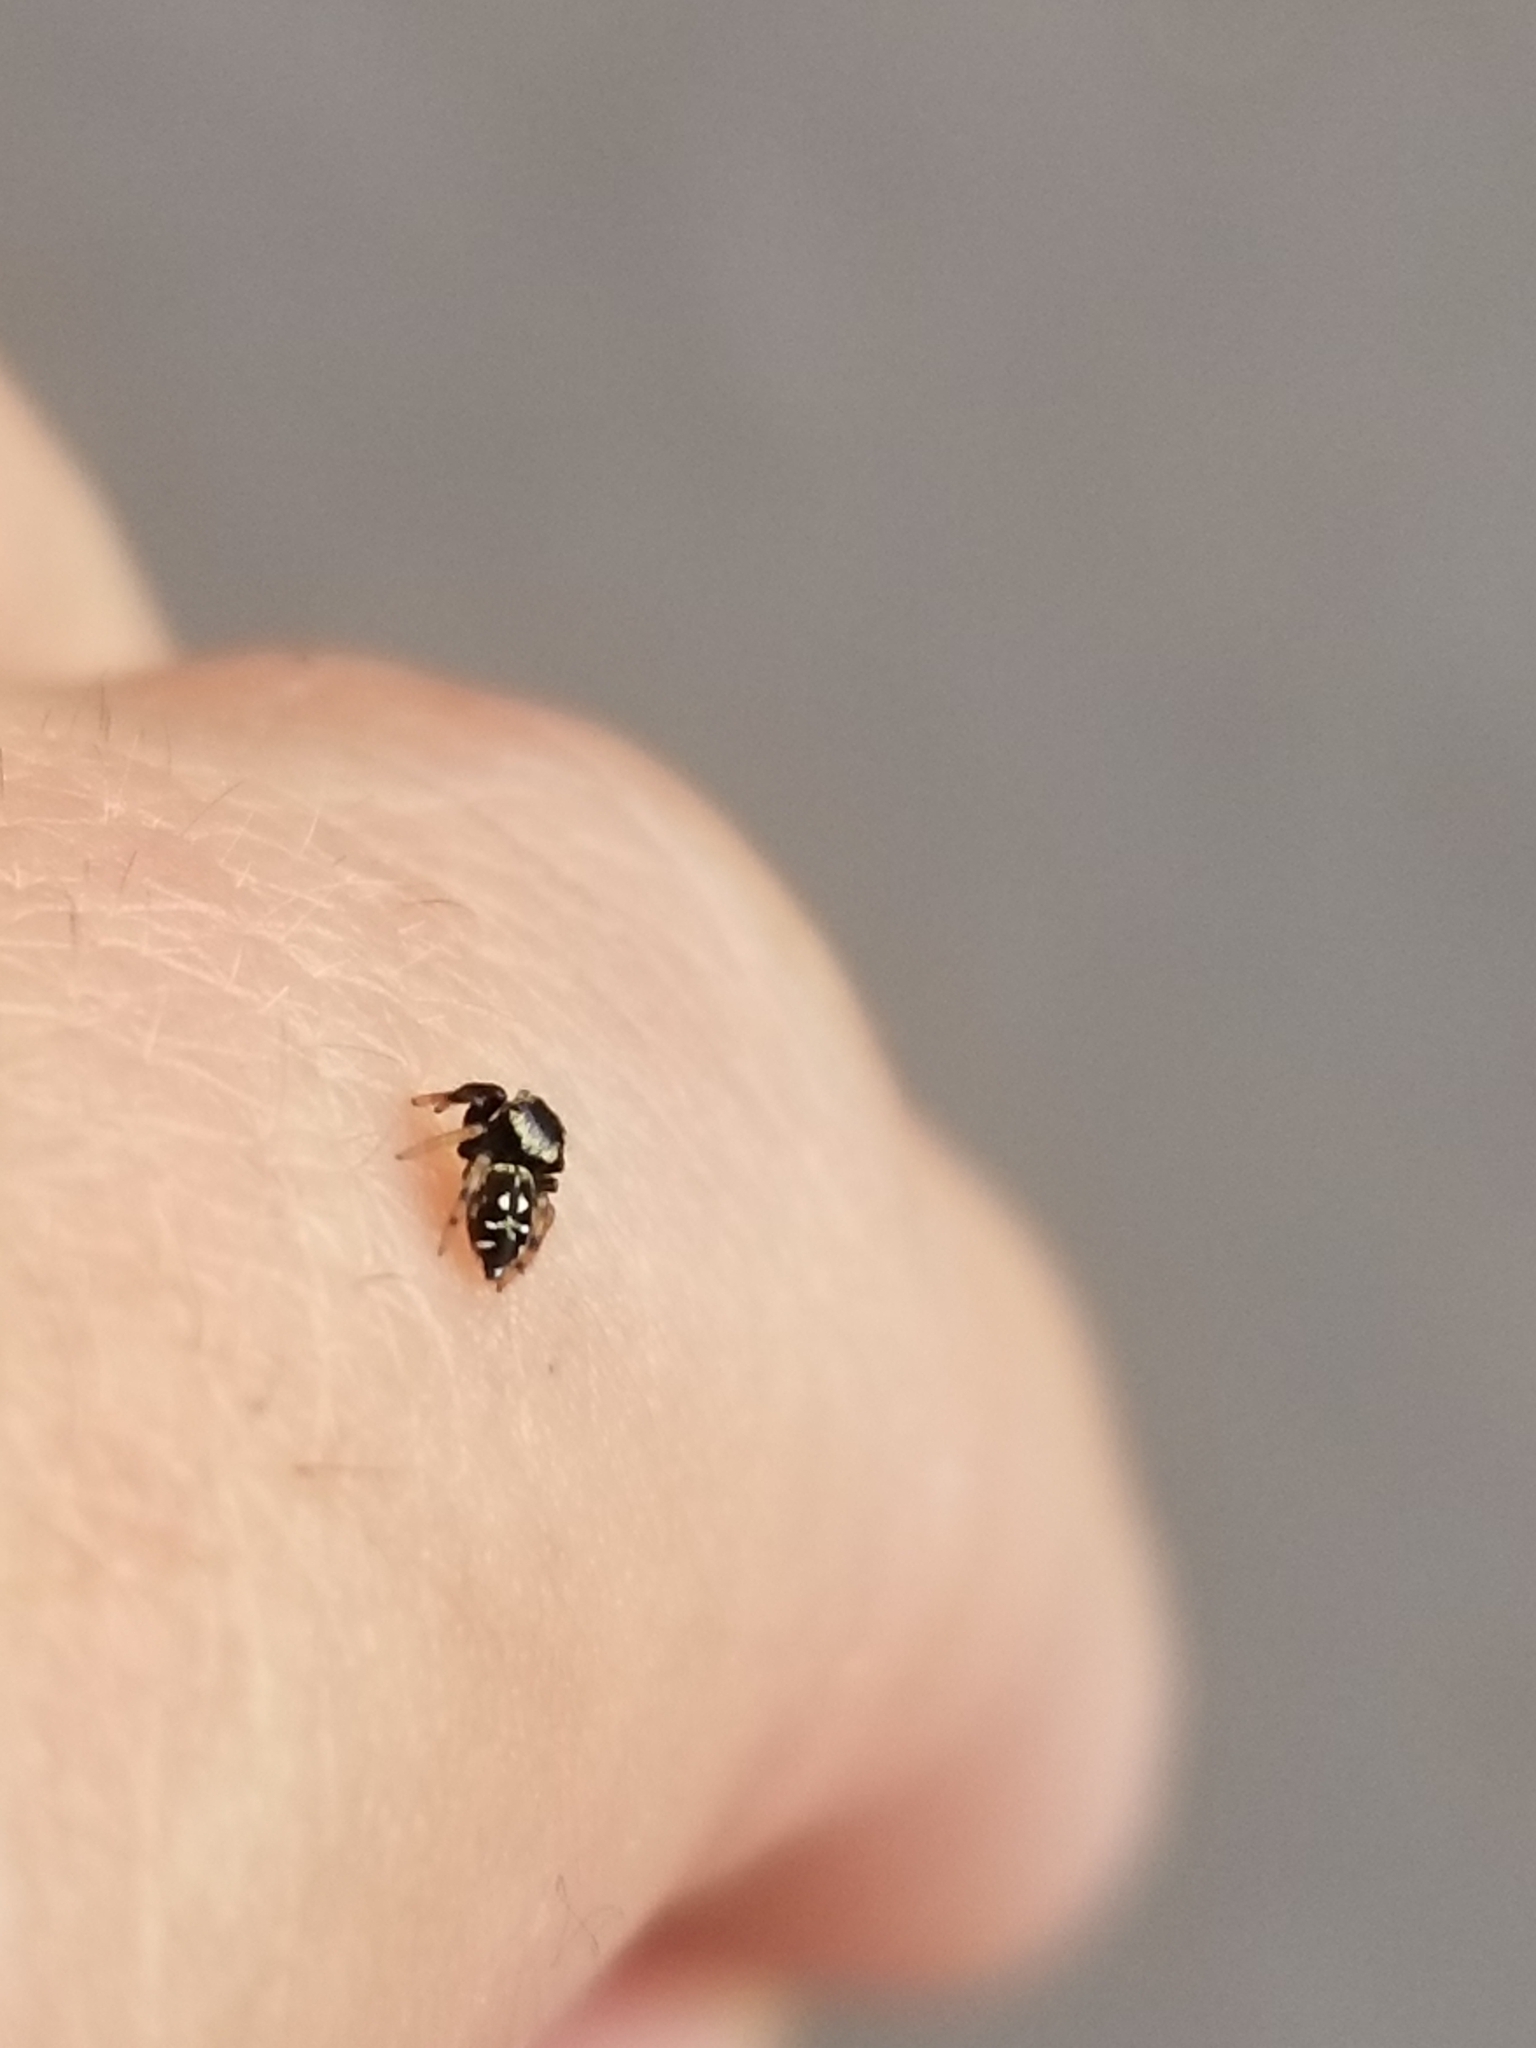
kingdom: Animalia
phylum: Arthropoda
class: Arachnida
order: Araneae
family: Salticidae
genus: Paraphidippus
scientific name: Paraphidippus aurantius
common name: Jumping spiders
